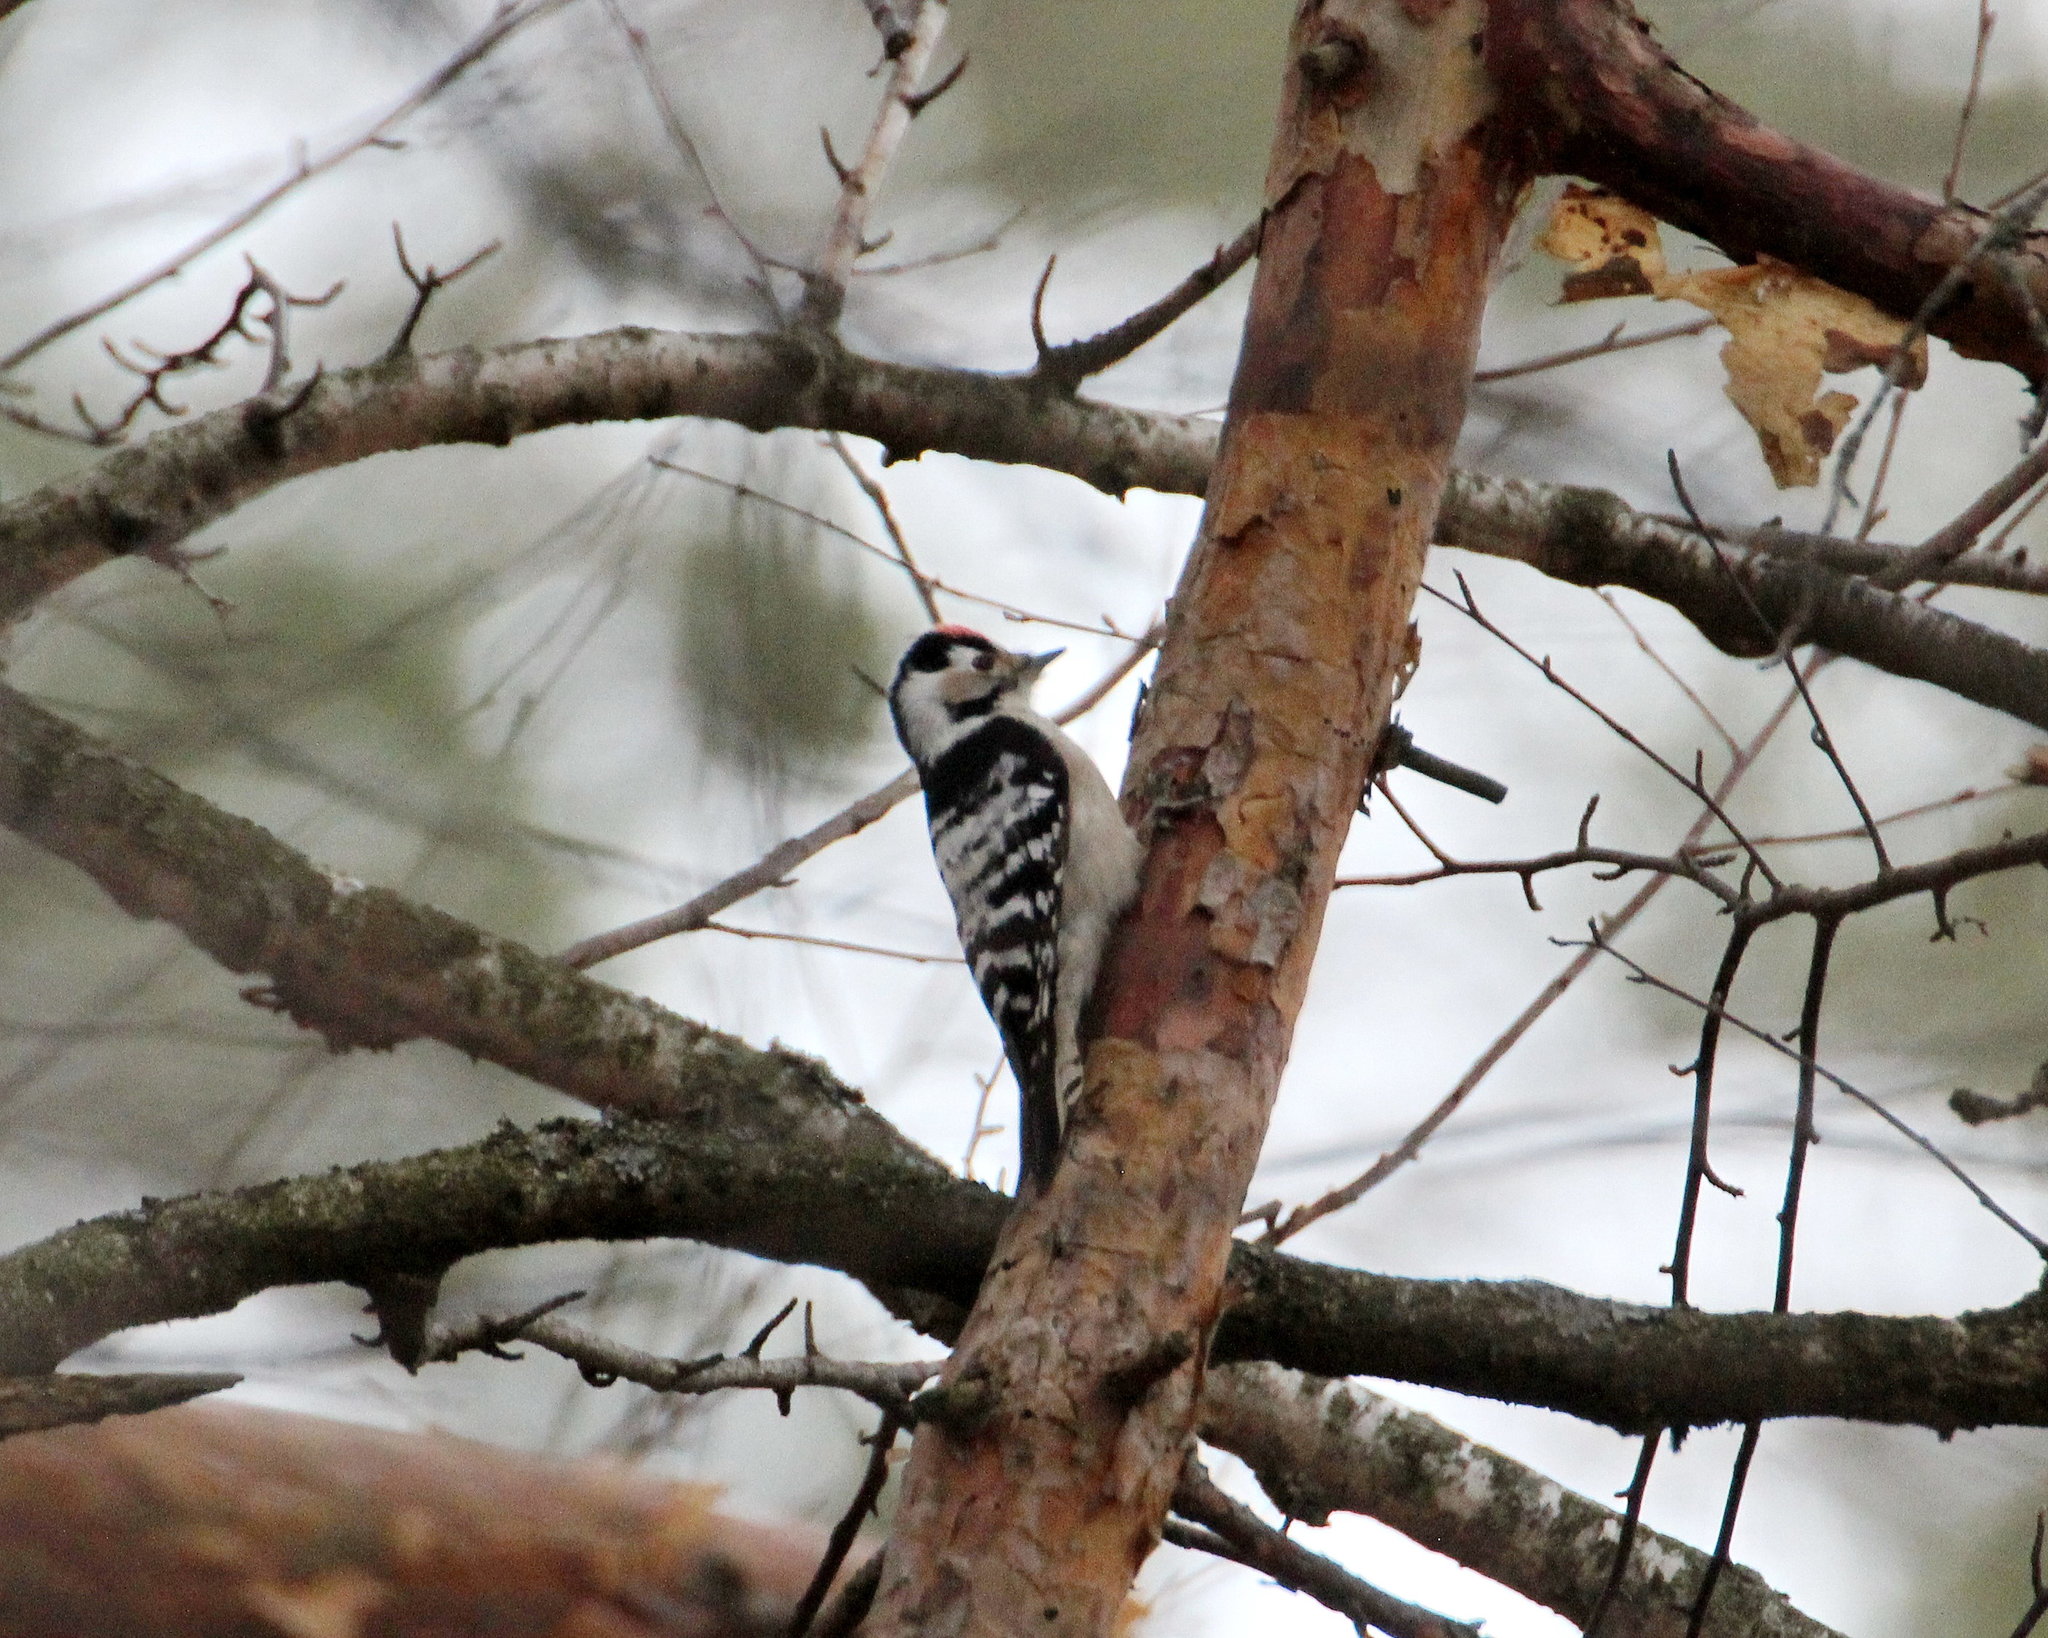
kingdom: Animalia
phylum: Chordata
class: Aves
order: Piciformes
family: Picidae
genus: Dryobates
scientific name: Dryobates minor
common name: Lesser spotted woodpecker
